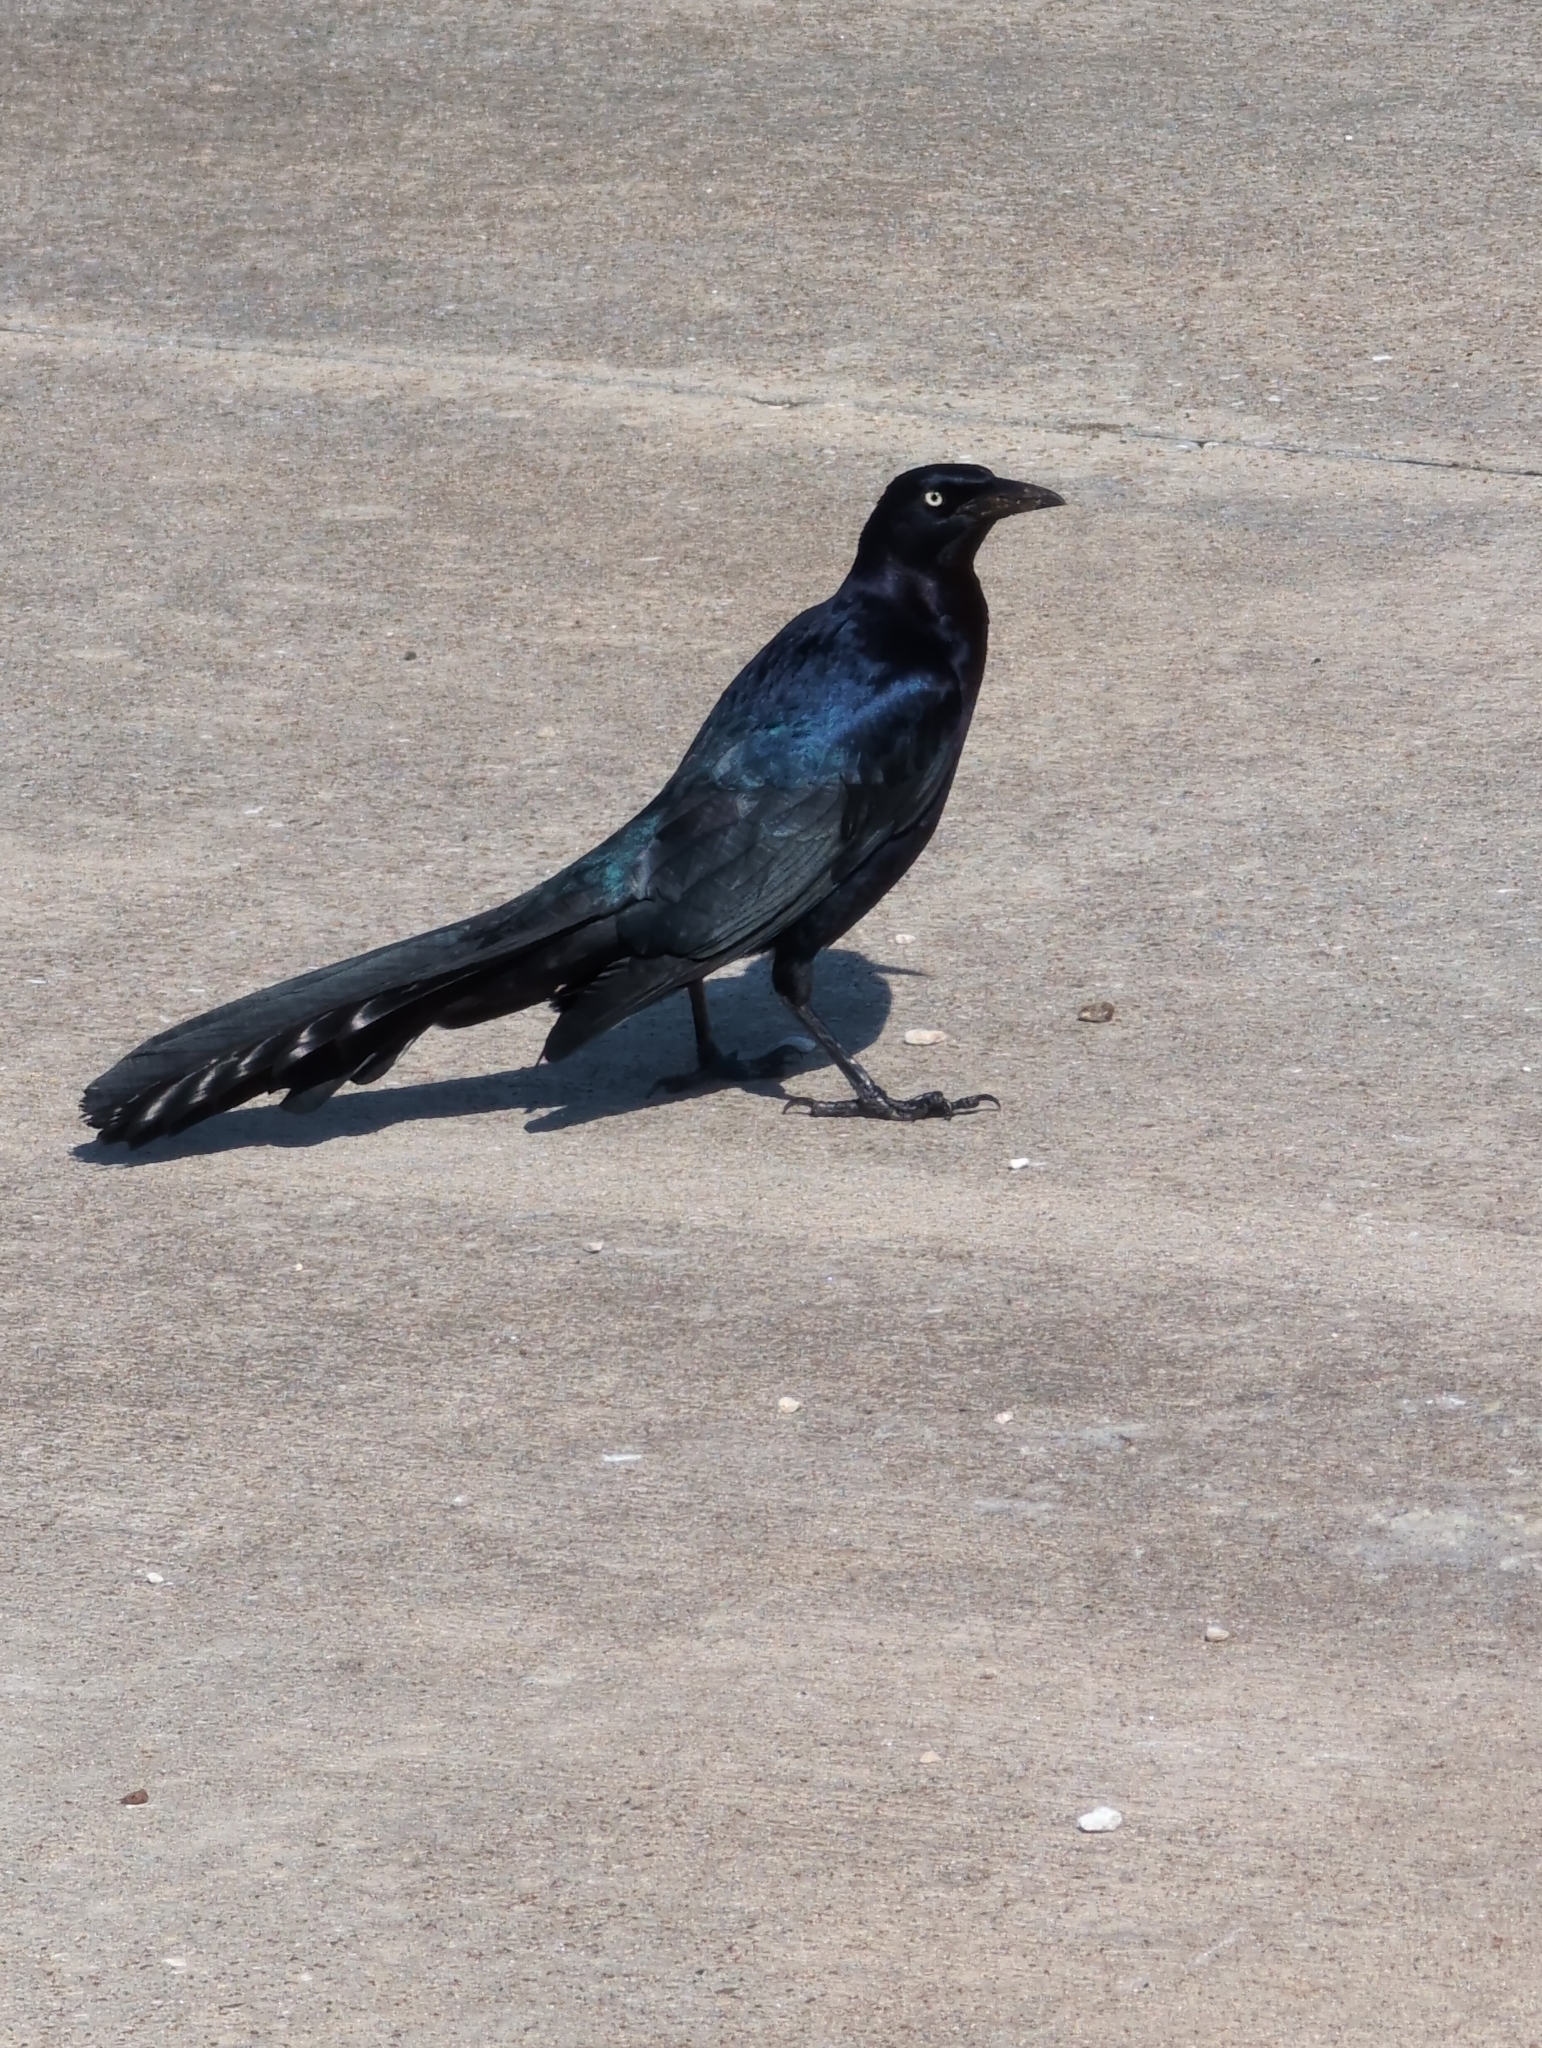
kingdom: Animalia
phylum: Chordata
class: Aves
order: Passeriformes
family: Icteridae
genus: Quiscalus
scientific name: Quiscalus mexicanus
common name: Great-tailed grackle
